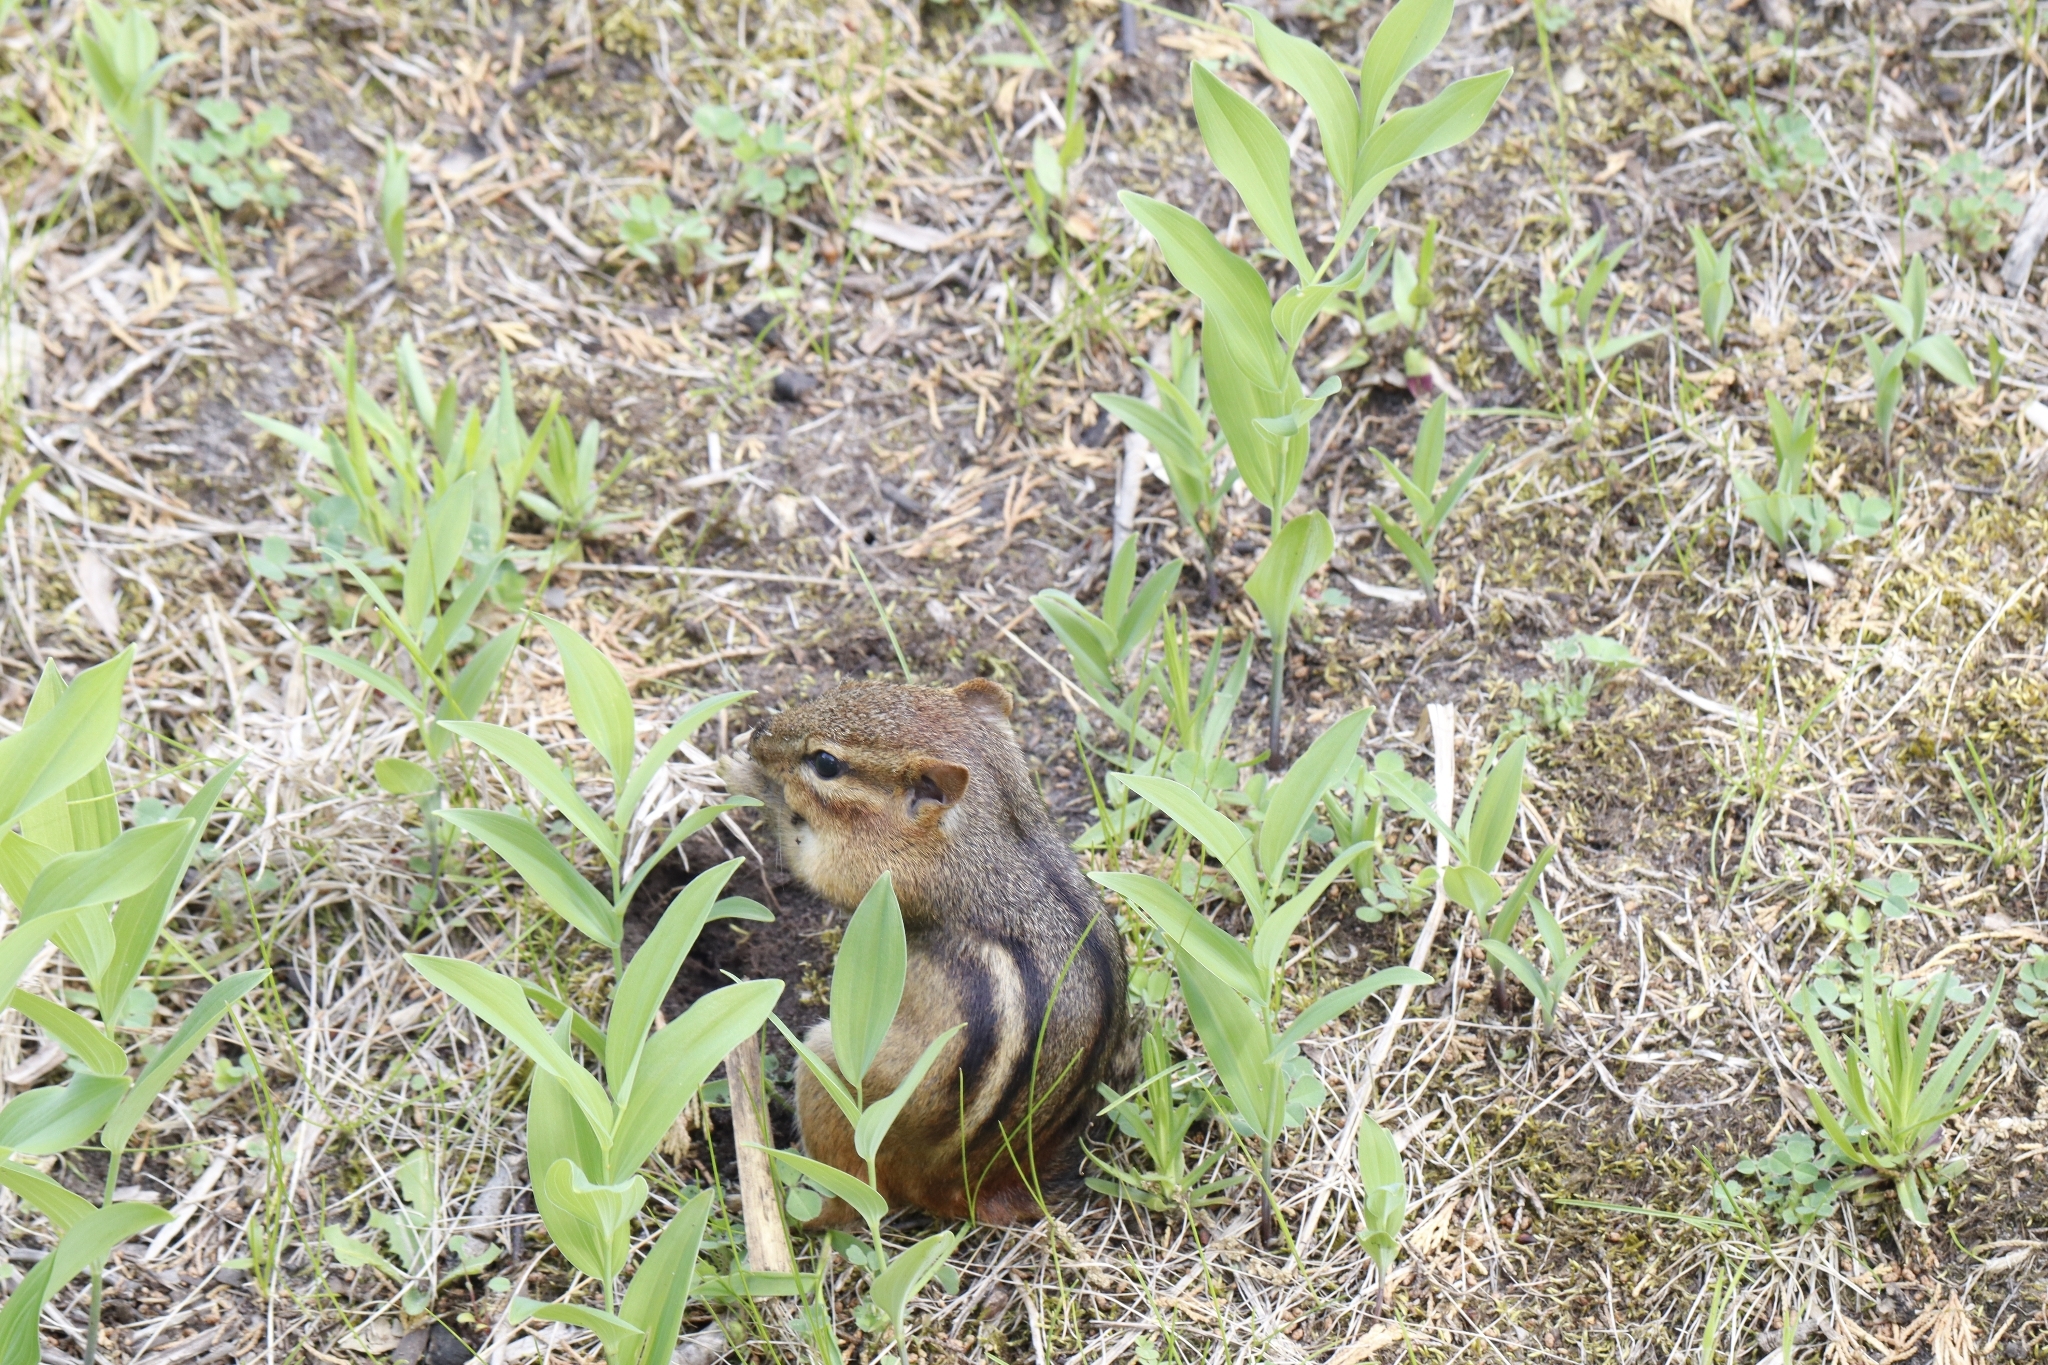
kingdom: Animalia
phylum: Chordata
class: Mammalia
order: Rodentia
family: Sciuridae
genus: Tamias
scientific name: Tamias striatus
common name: Eastern chipmunk
